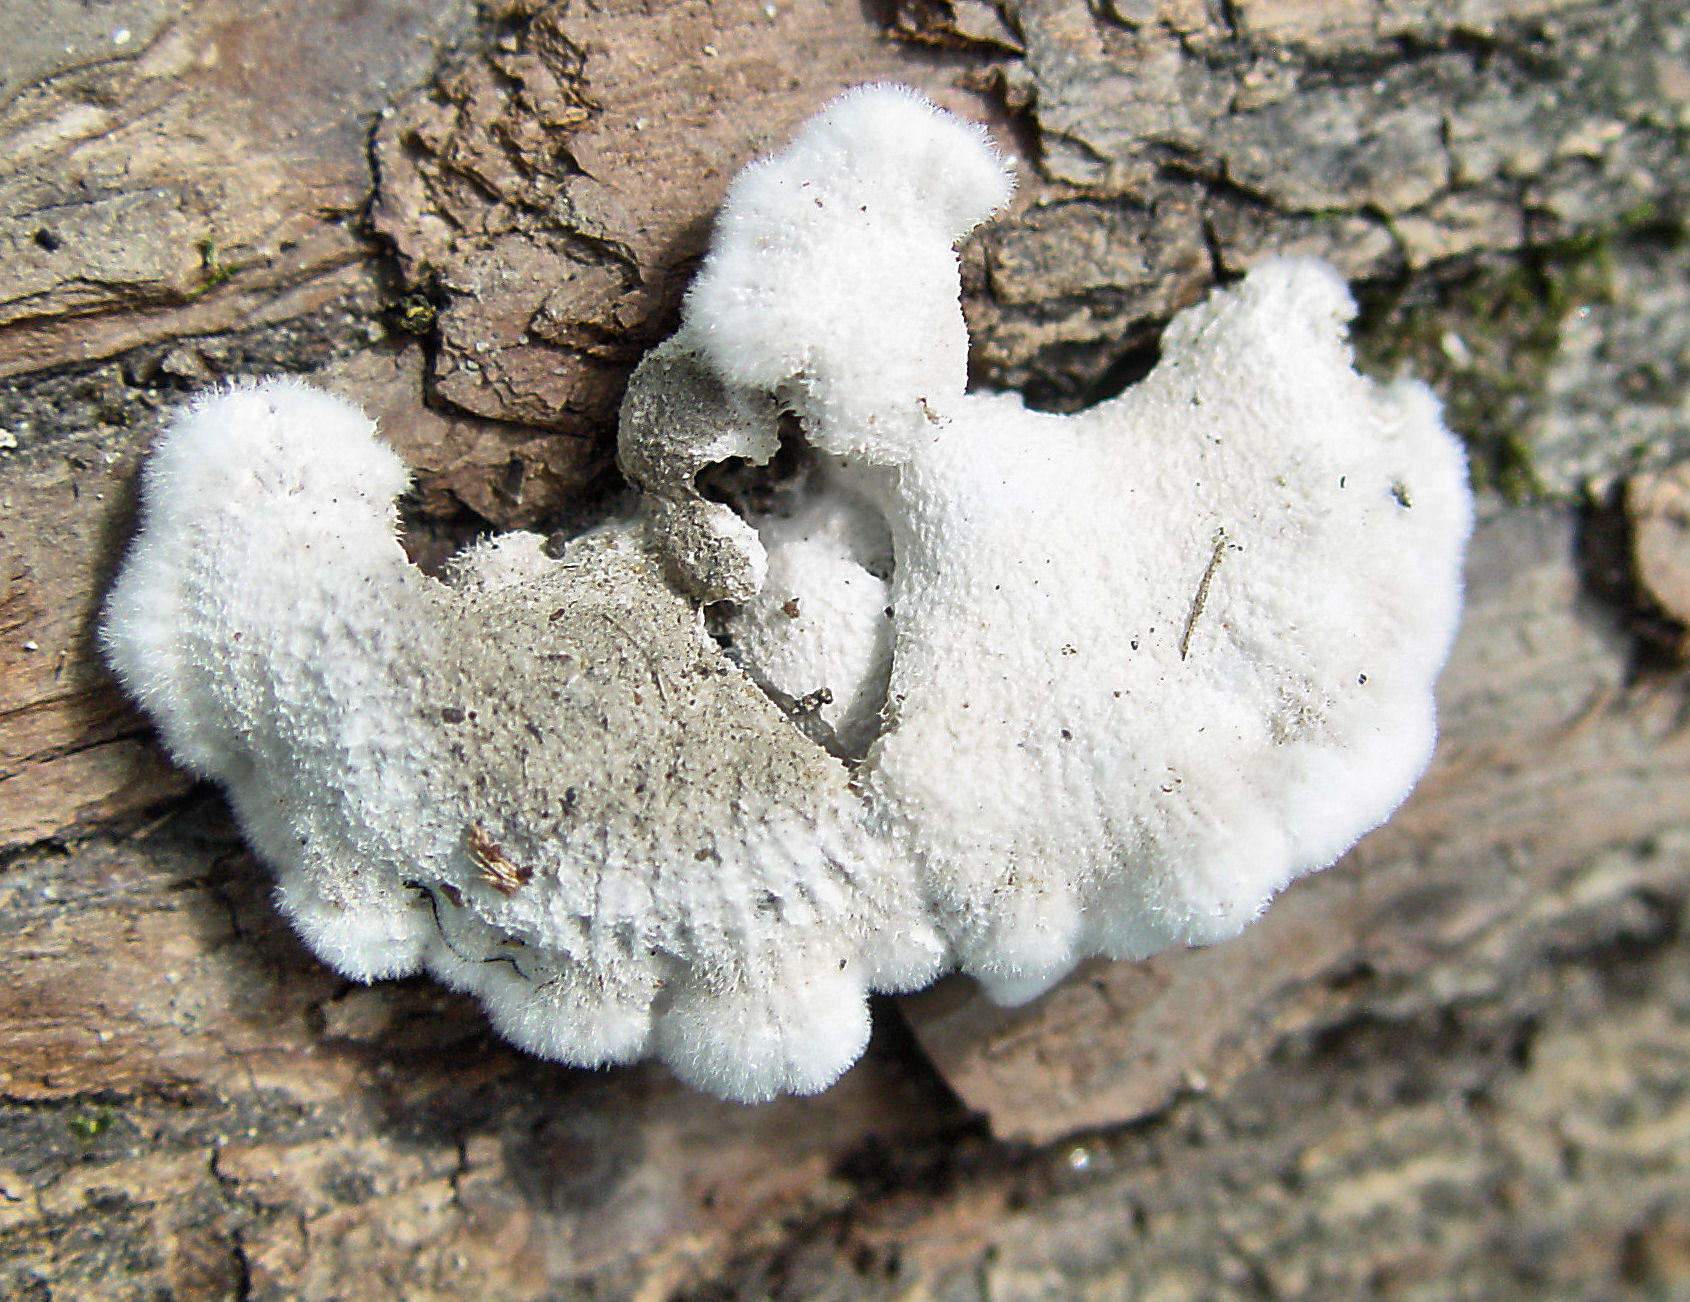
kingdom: Fungi
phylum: Basidiomycota
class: Agaricomycetes
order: Agaricales
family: Schizophyllaceae
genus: Schizophyllum
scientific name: Schizophyllum commune
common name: Common porecrust
